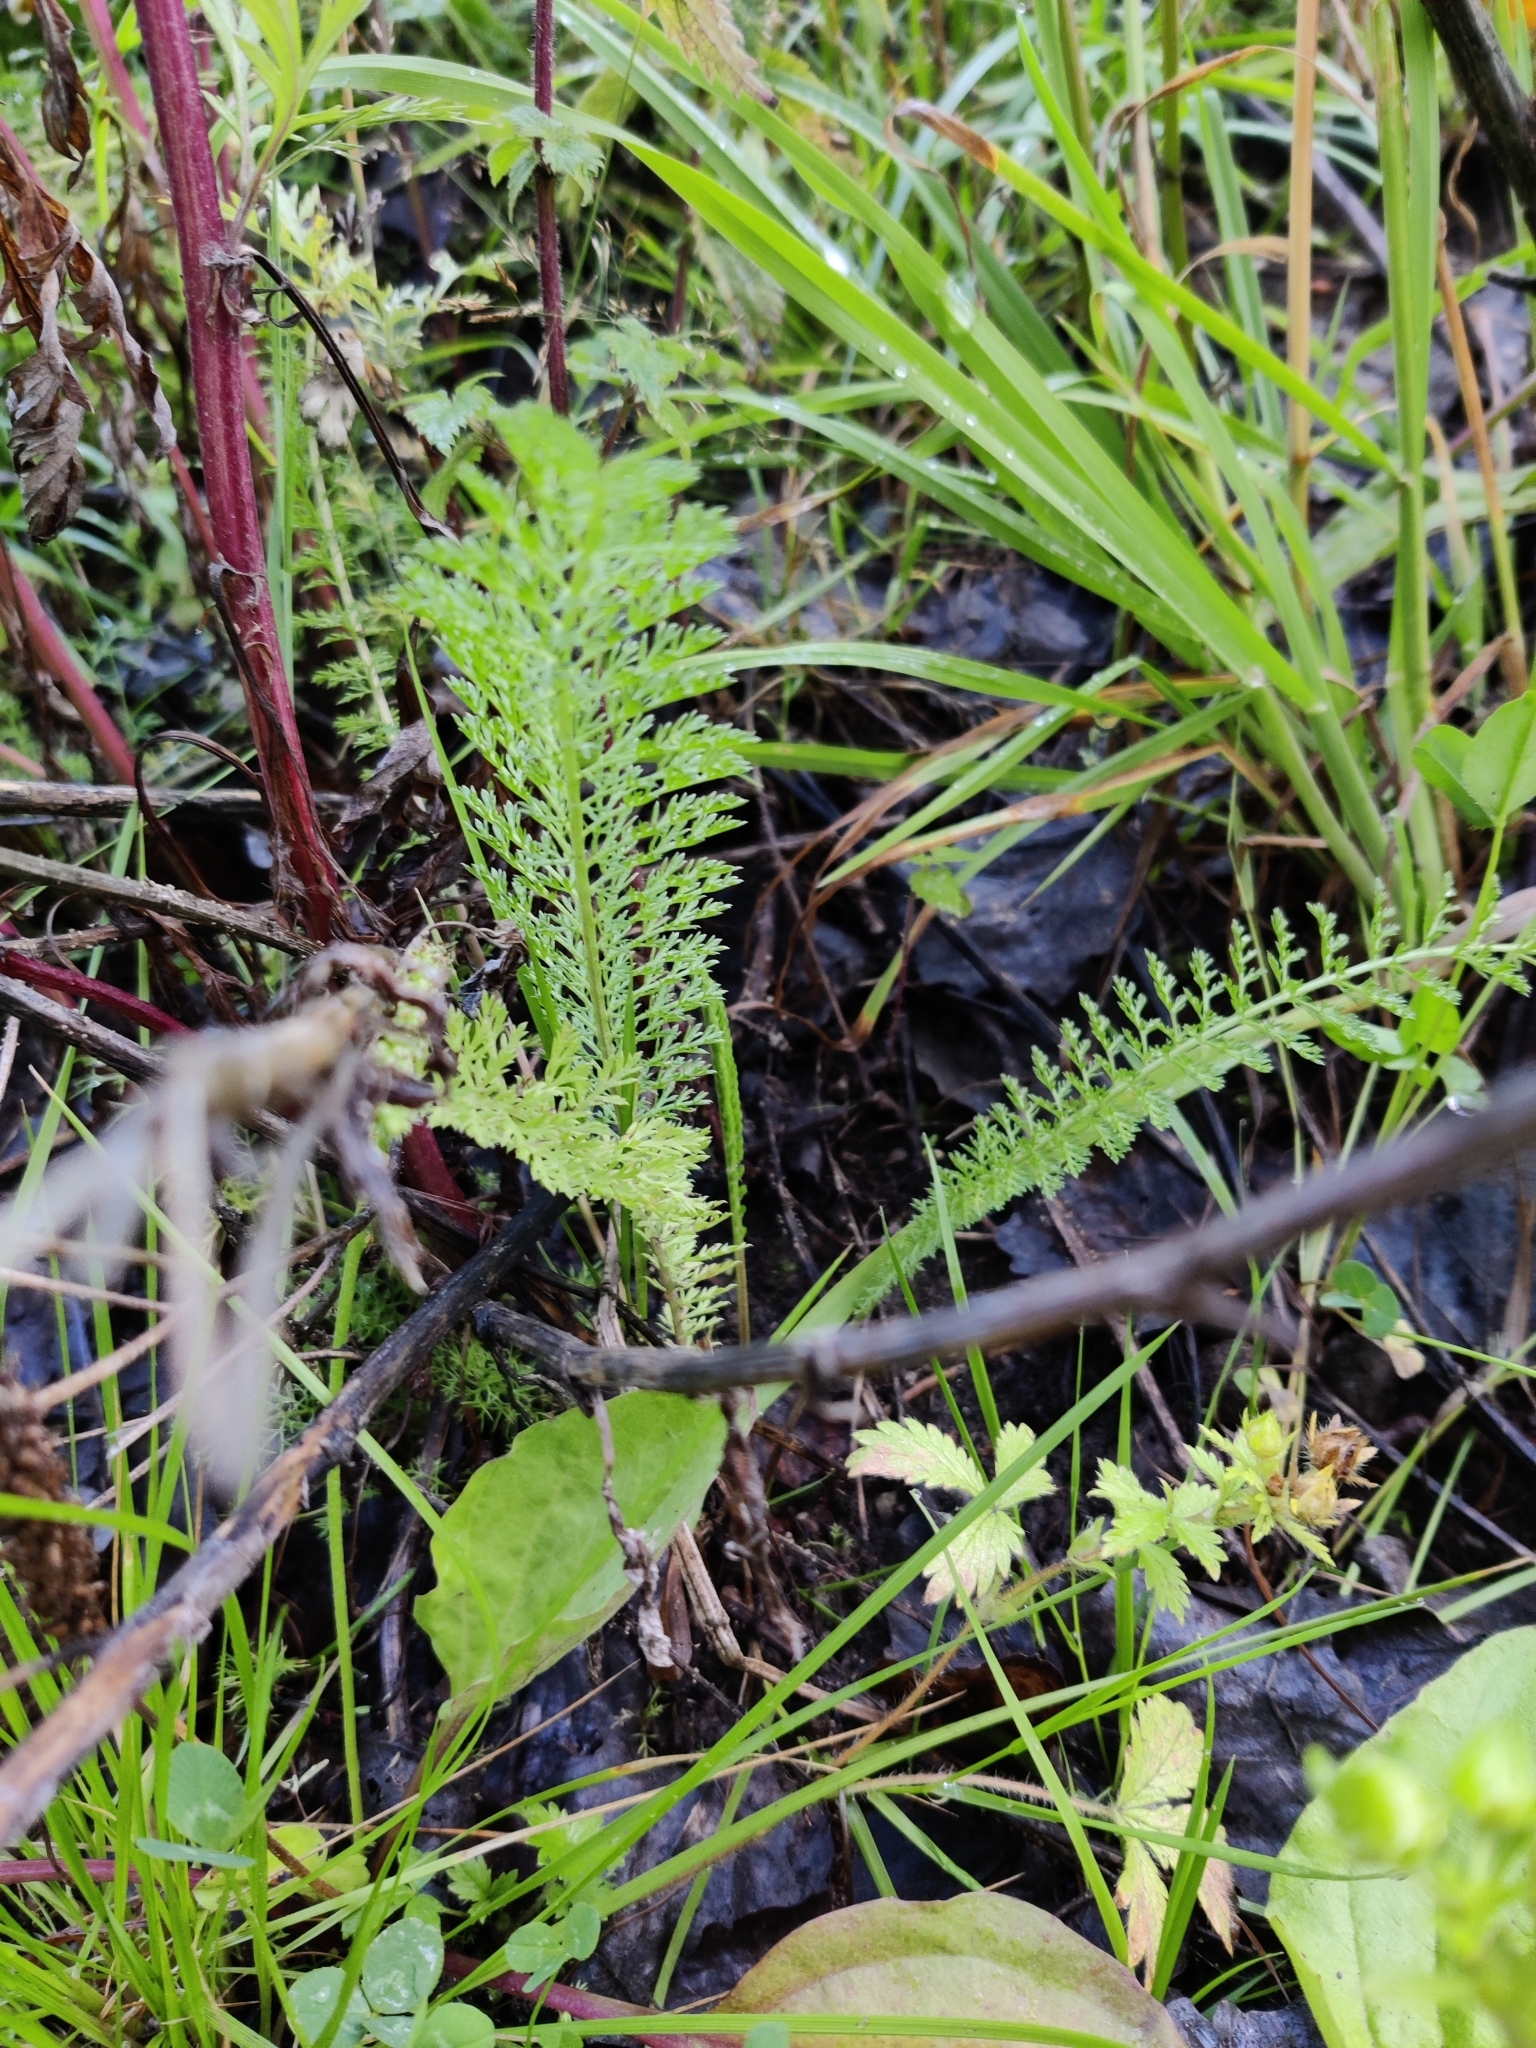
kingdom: Plantae
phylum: Tracheophyta
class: Magnoliopsida
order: Asterales
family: Asteraceae
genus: Achillea
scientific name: Achillea millefolium
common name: Yarrow
